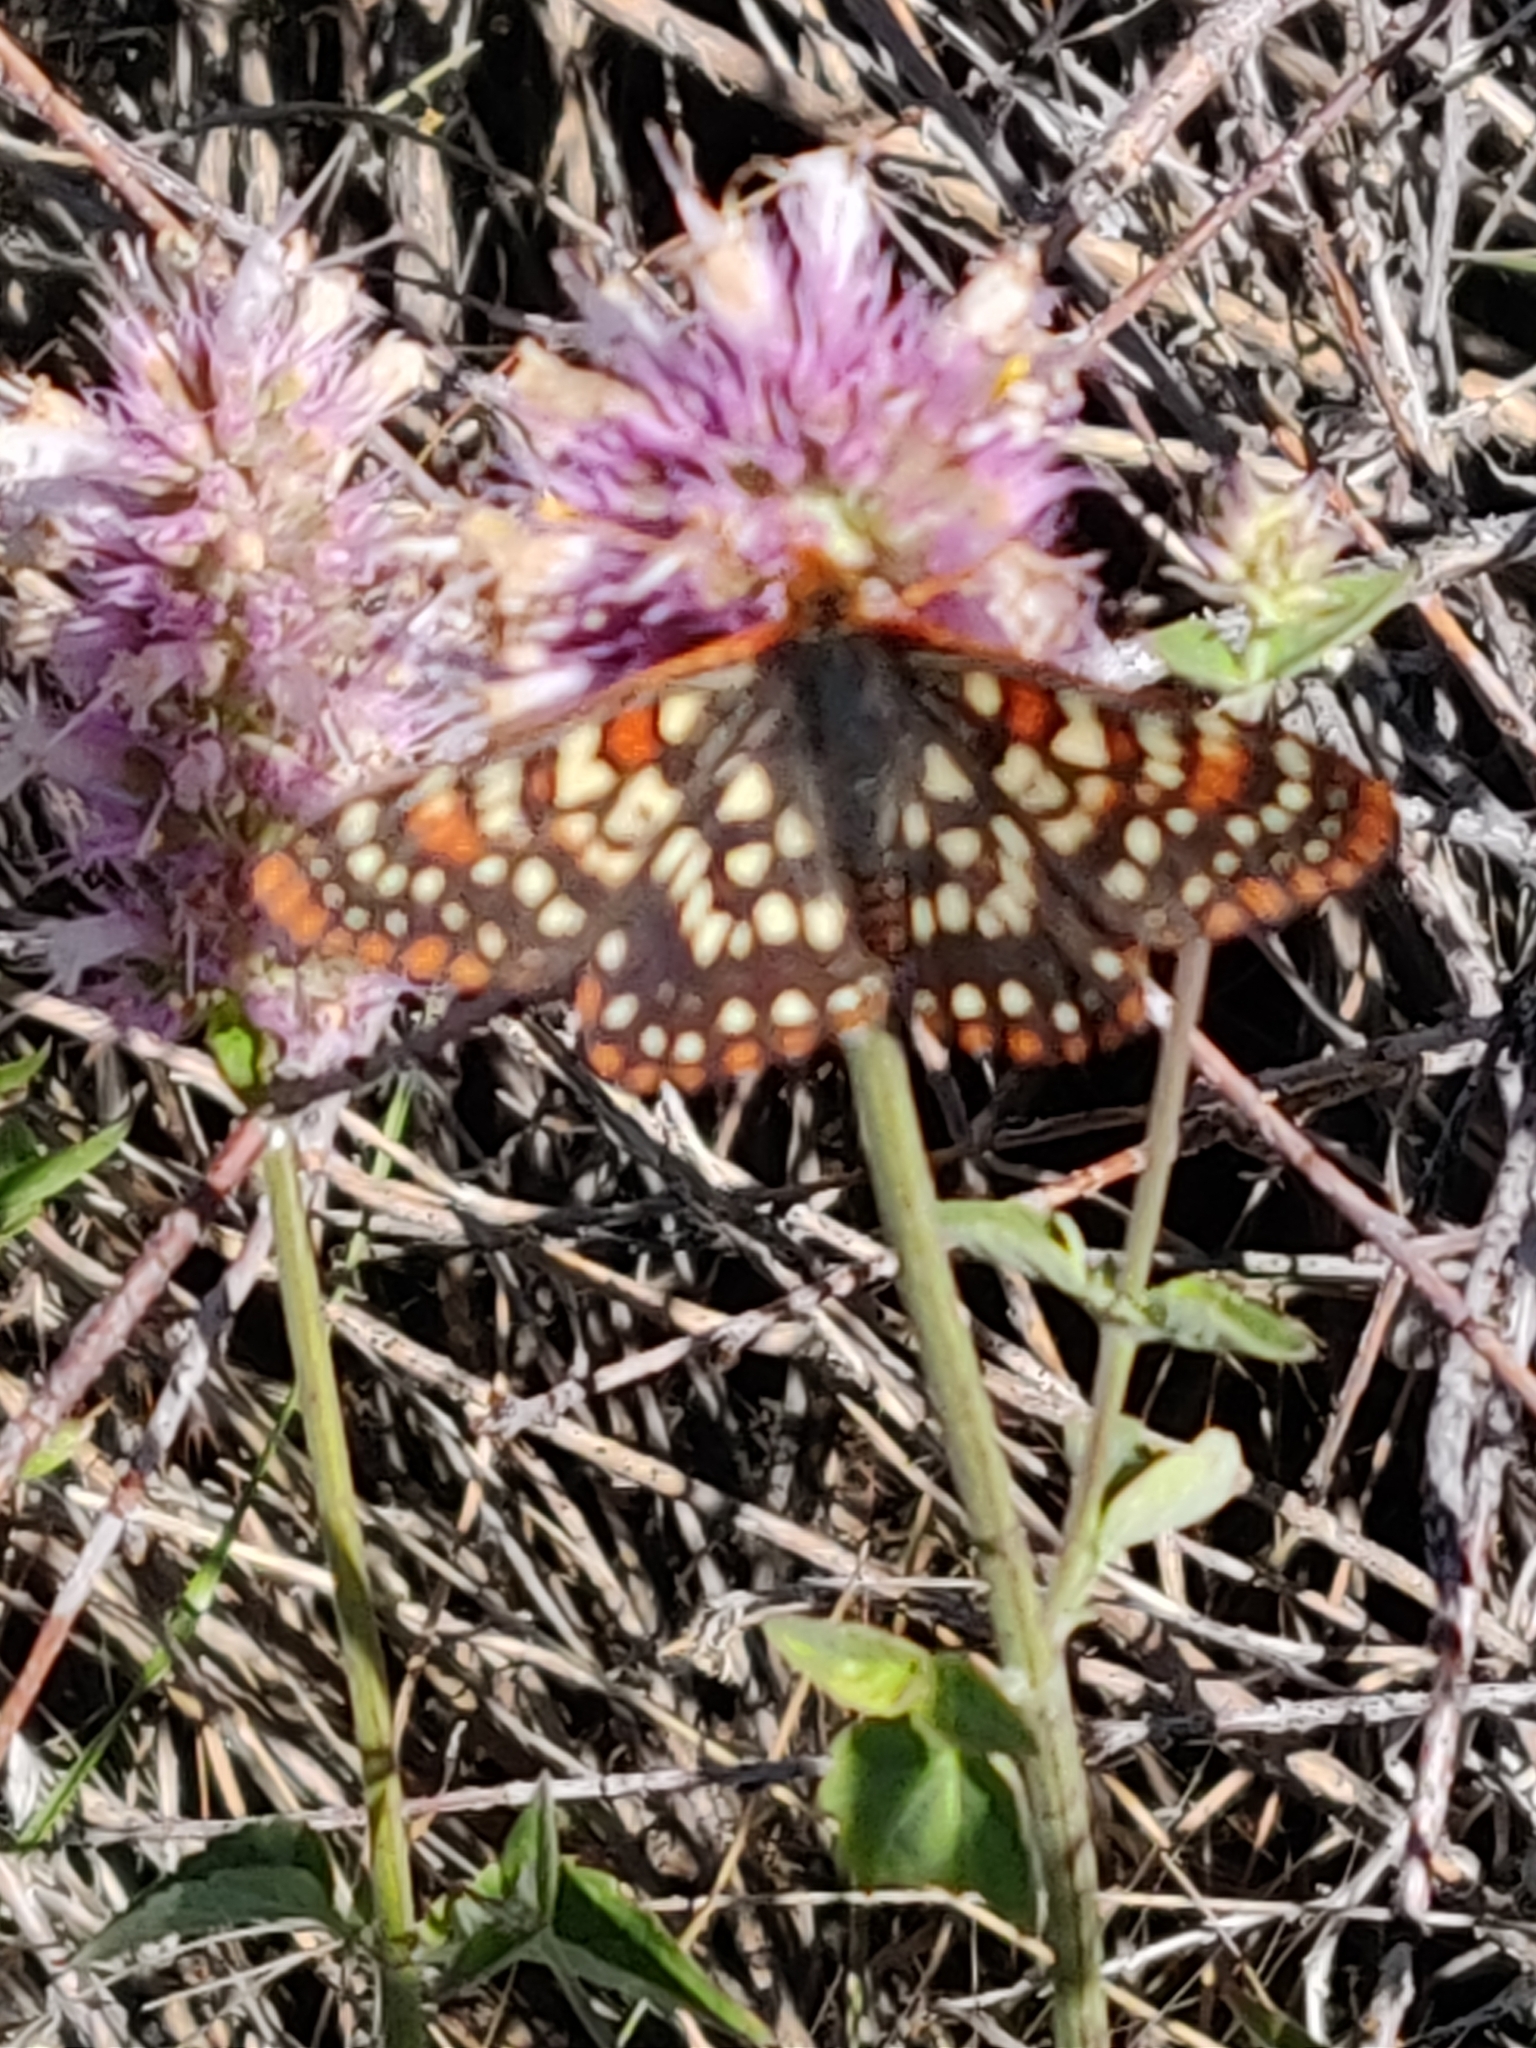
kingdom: Animalia
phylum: Arthropoda
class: Insecta
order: Lepidoptera
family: Nymphalidae
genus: Occidryas
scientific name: Occidryas chalcedona
